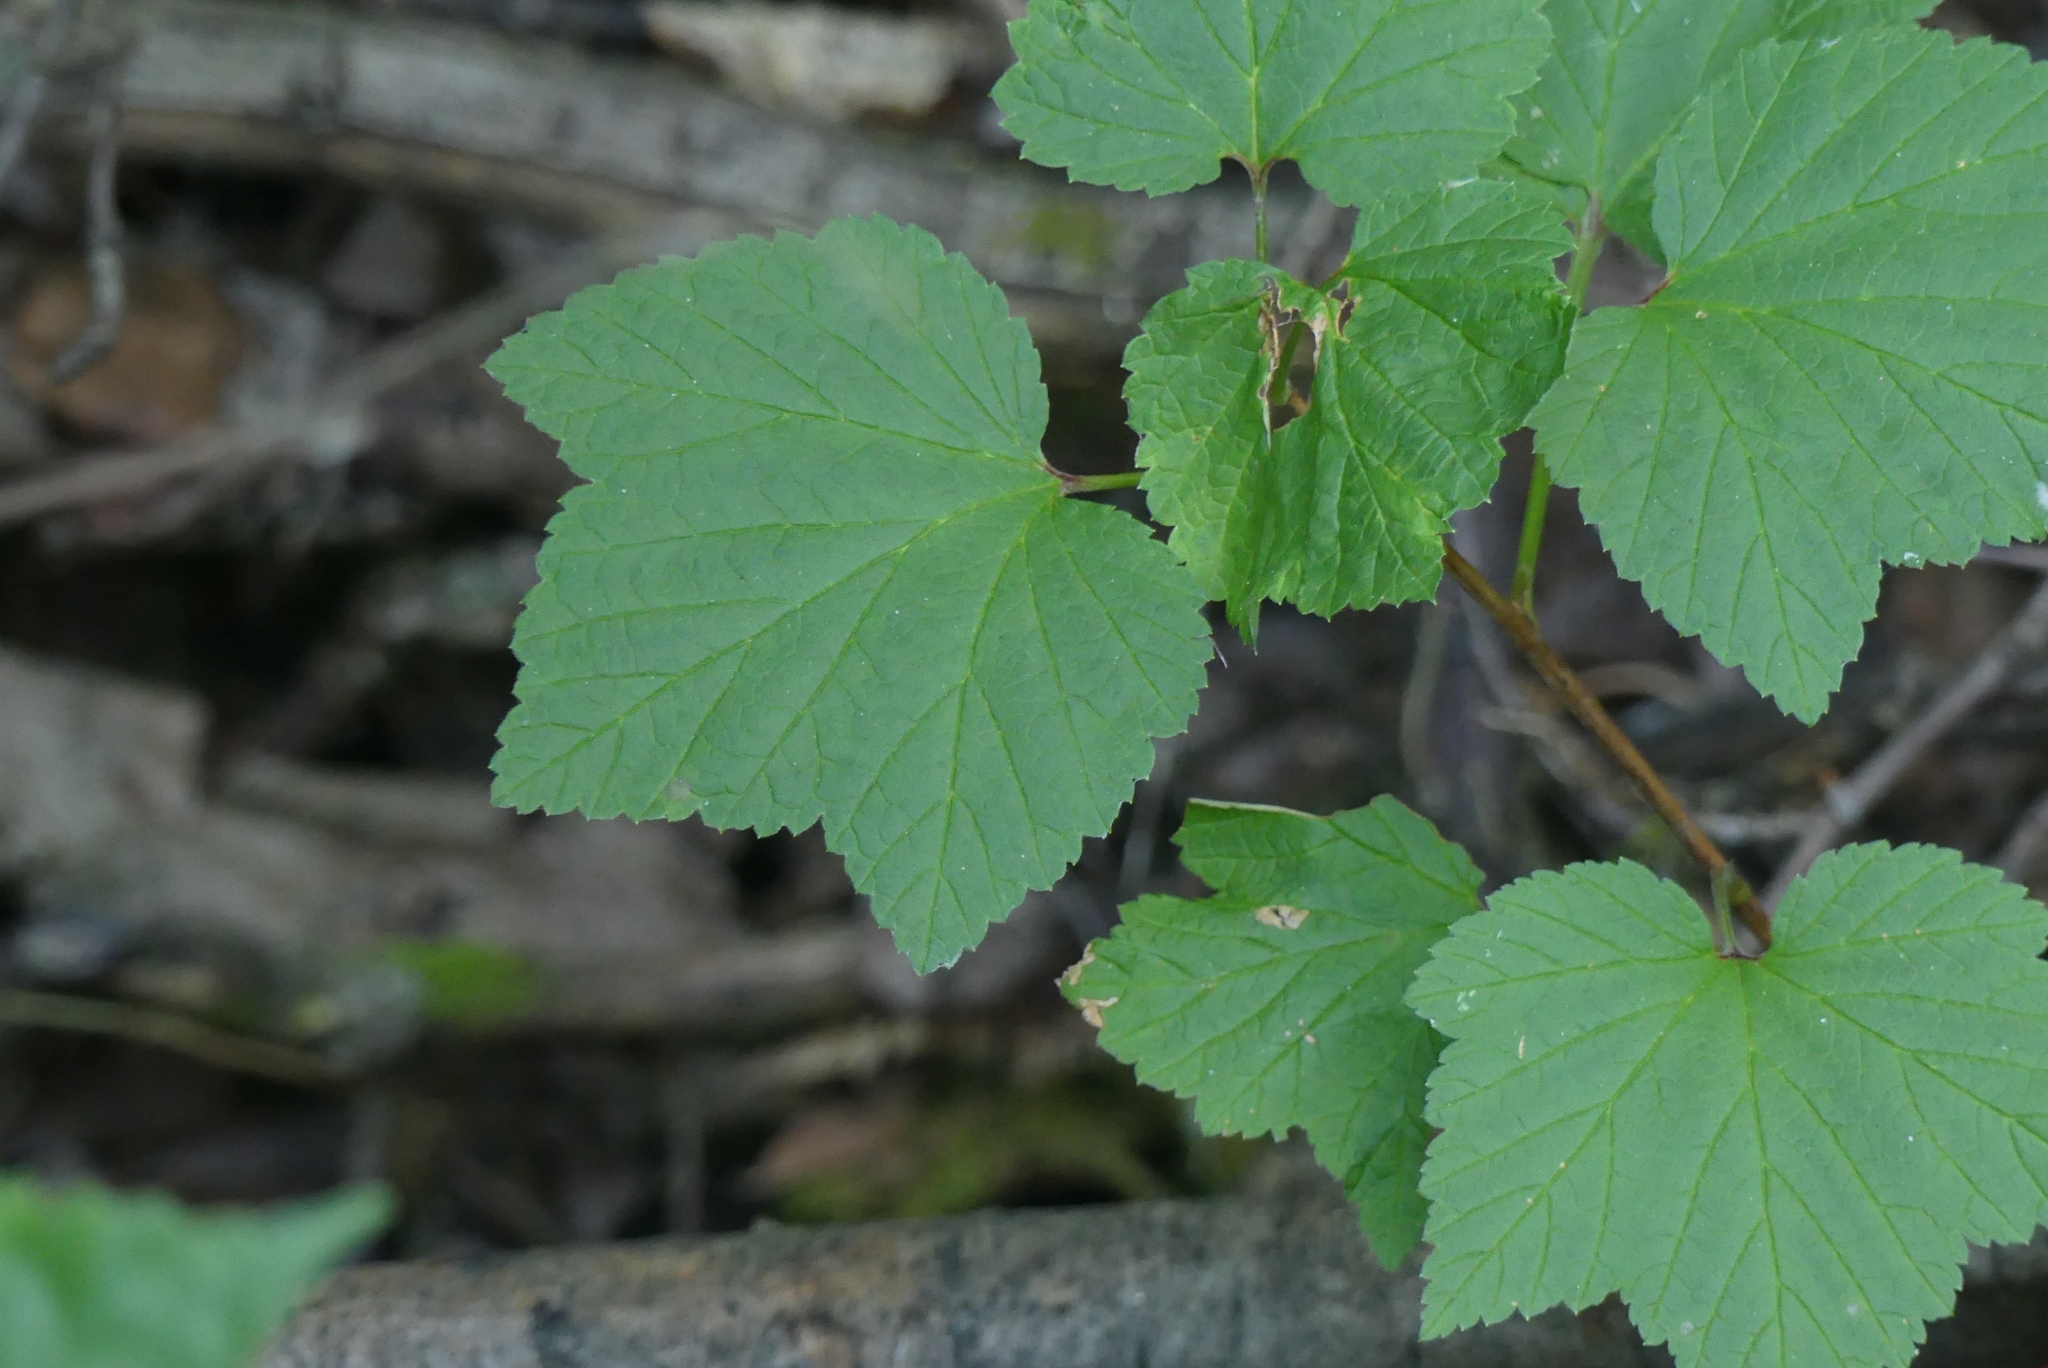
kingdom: Plantae
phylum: Tracheophyta
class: Magnoliopsida
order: Saxifragales
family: Grossulariaceae
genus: Ribes
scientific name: Ribes triste
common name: Swamp red currant
